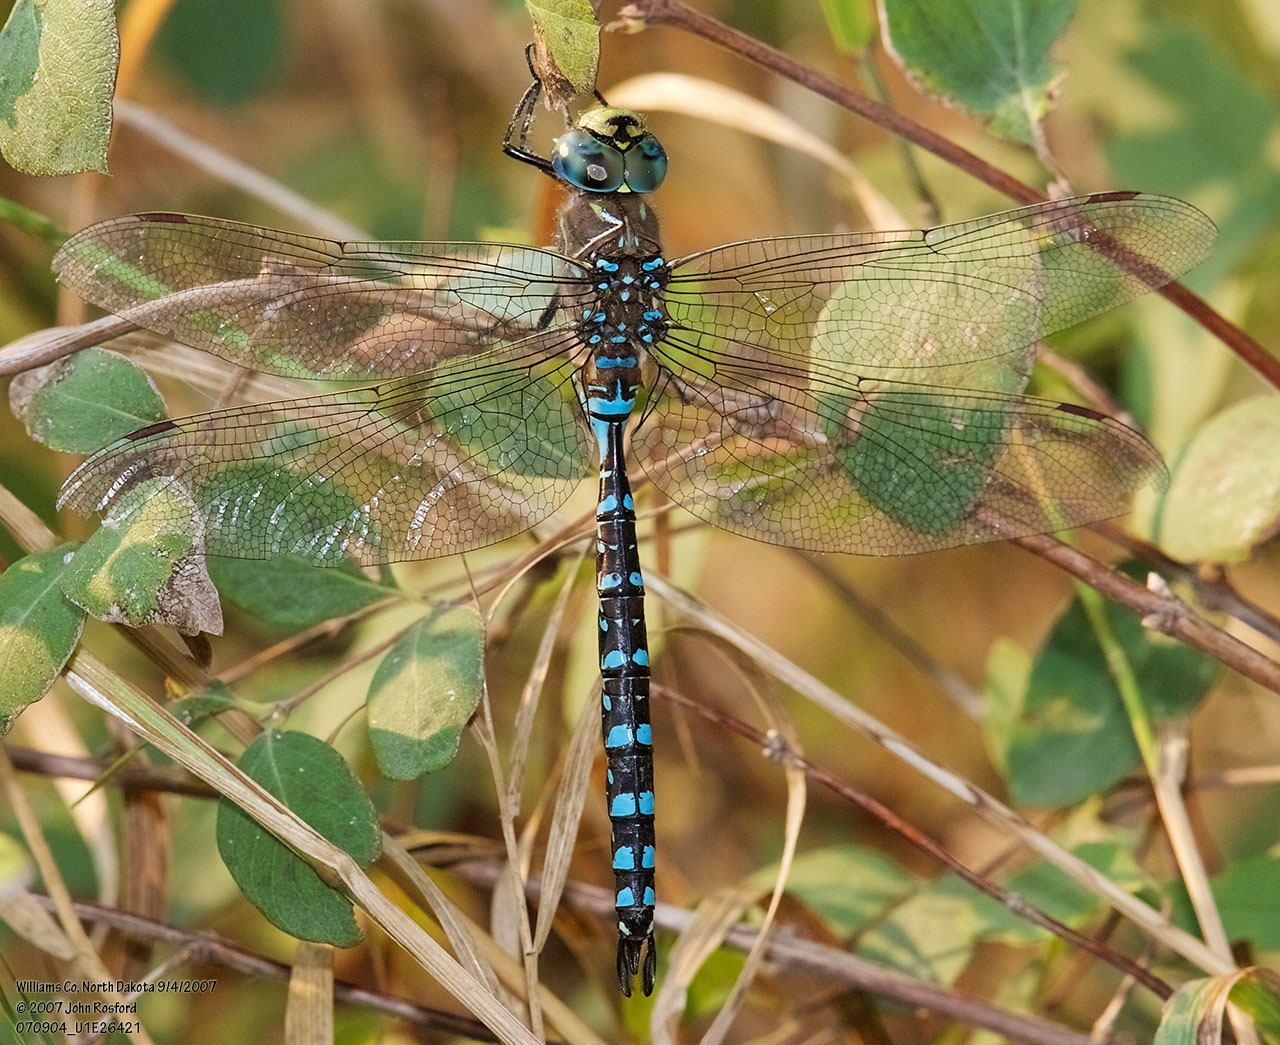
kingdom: Animalia
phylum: Arthropoda
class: Insecta
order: Odonata
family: Aeshnidae
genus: Aeshna
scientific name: Aeshna interrupta
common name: Variable darner
